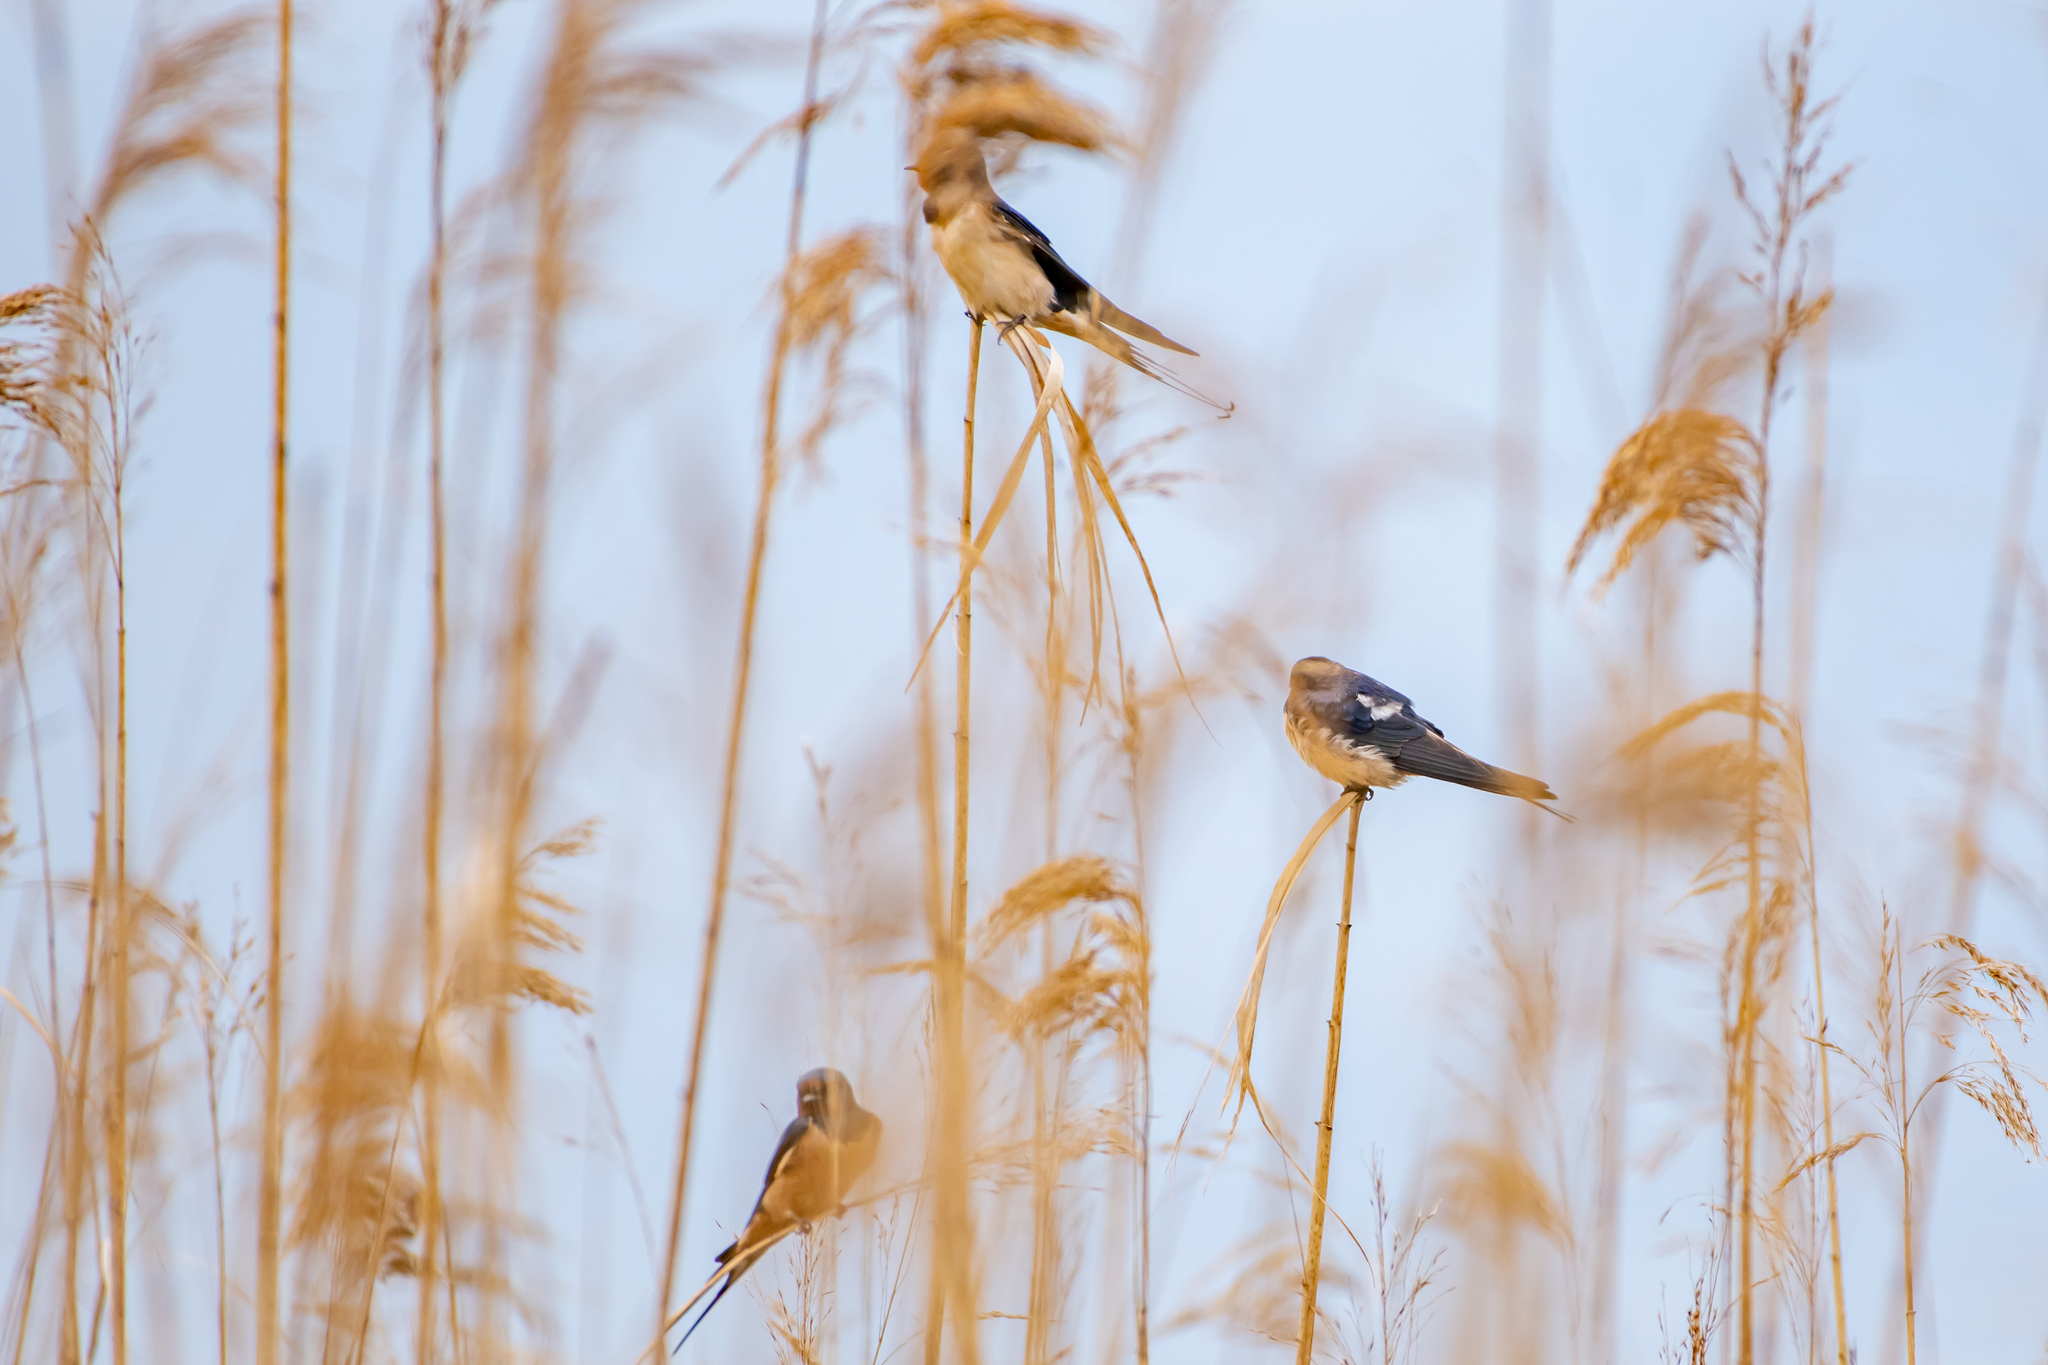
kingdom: Animalia
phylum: Chordata
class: Aves
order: Passeriformes
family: Hirundinidae
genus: Hirundo
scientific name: Hirundo rustica
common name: Barn swallow
